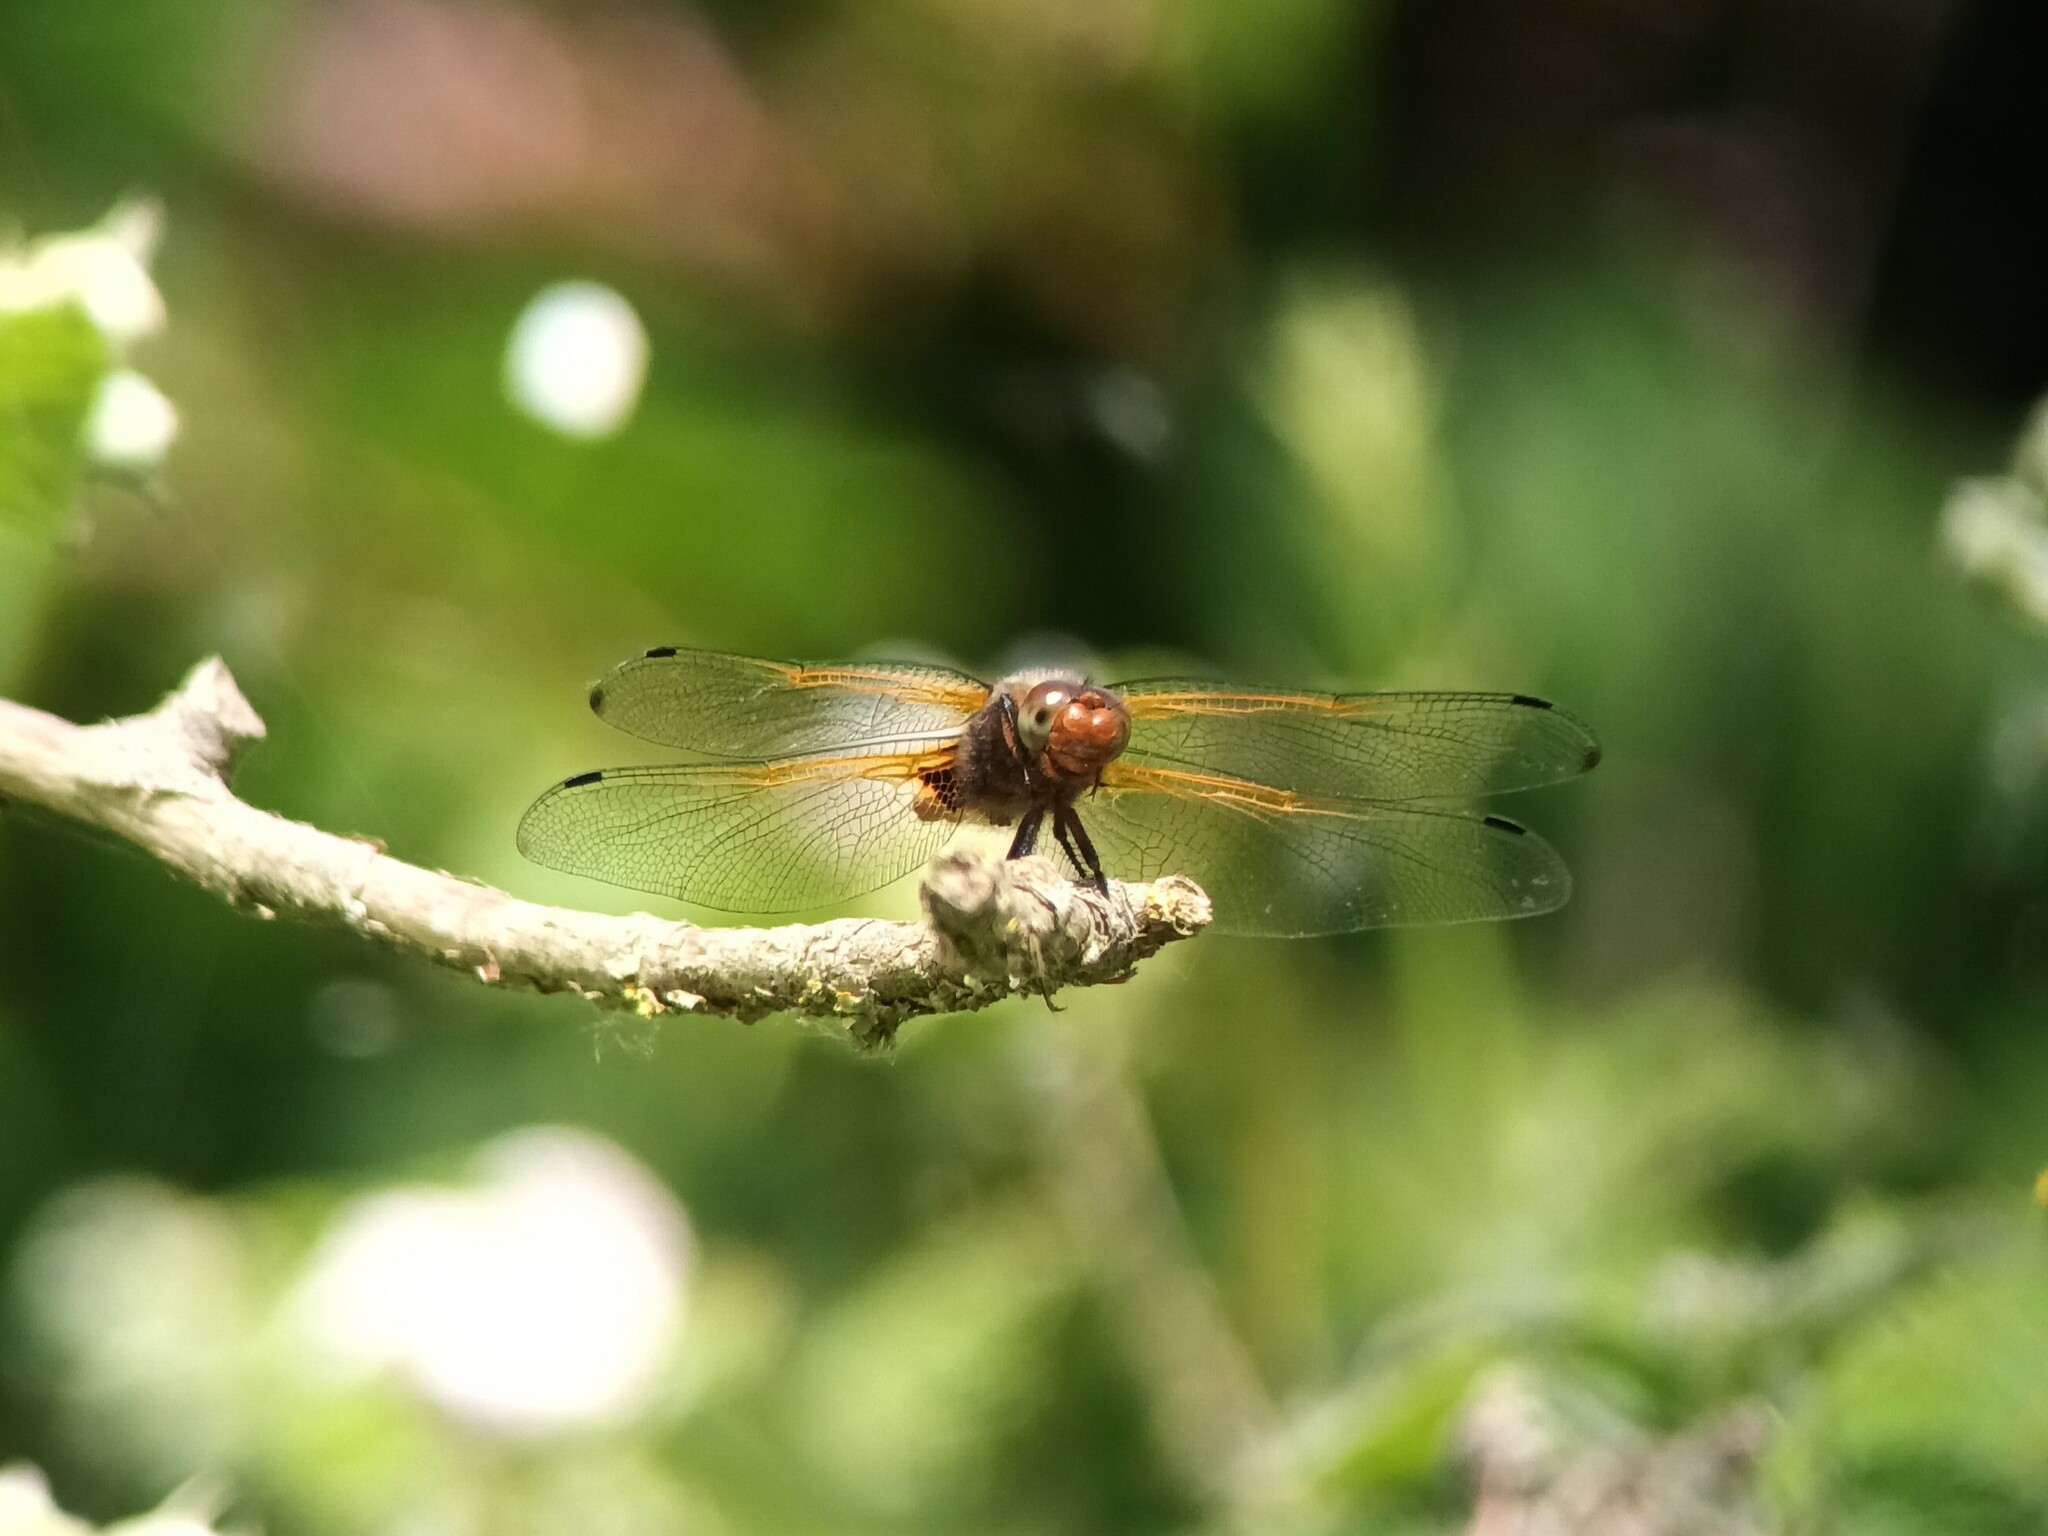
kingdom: Animalia
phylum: Arthropoda
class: Insecta
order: Odonata
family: Libellulidae
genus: Libellula
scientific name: Libellula fulva
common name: Blue chaser
